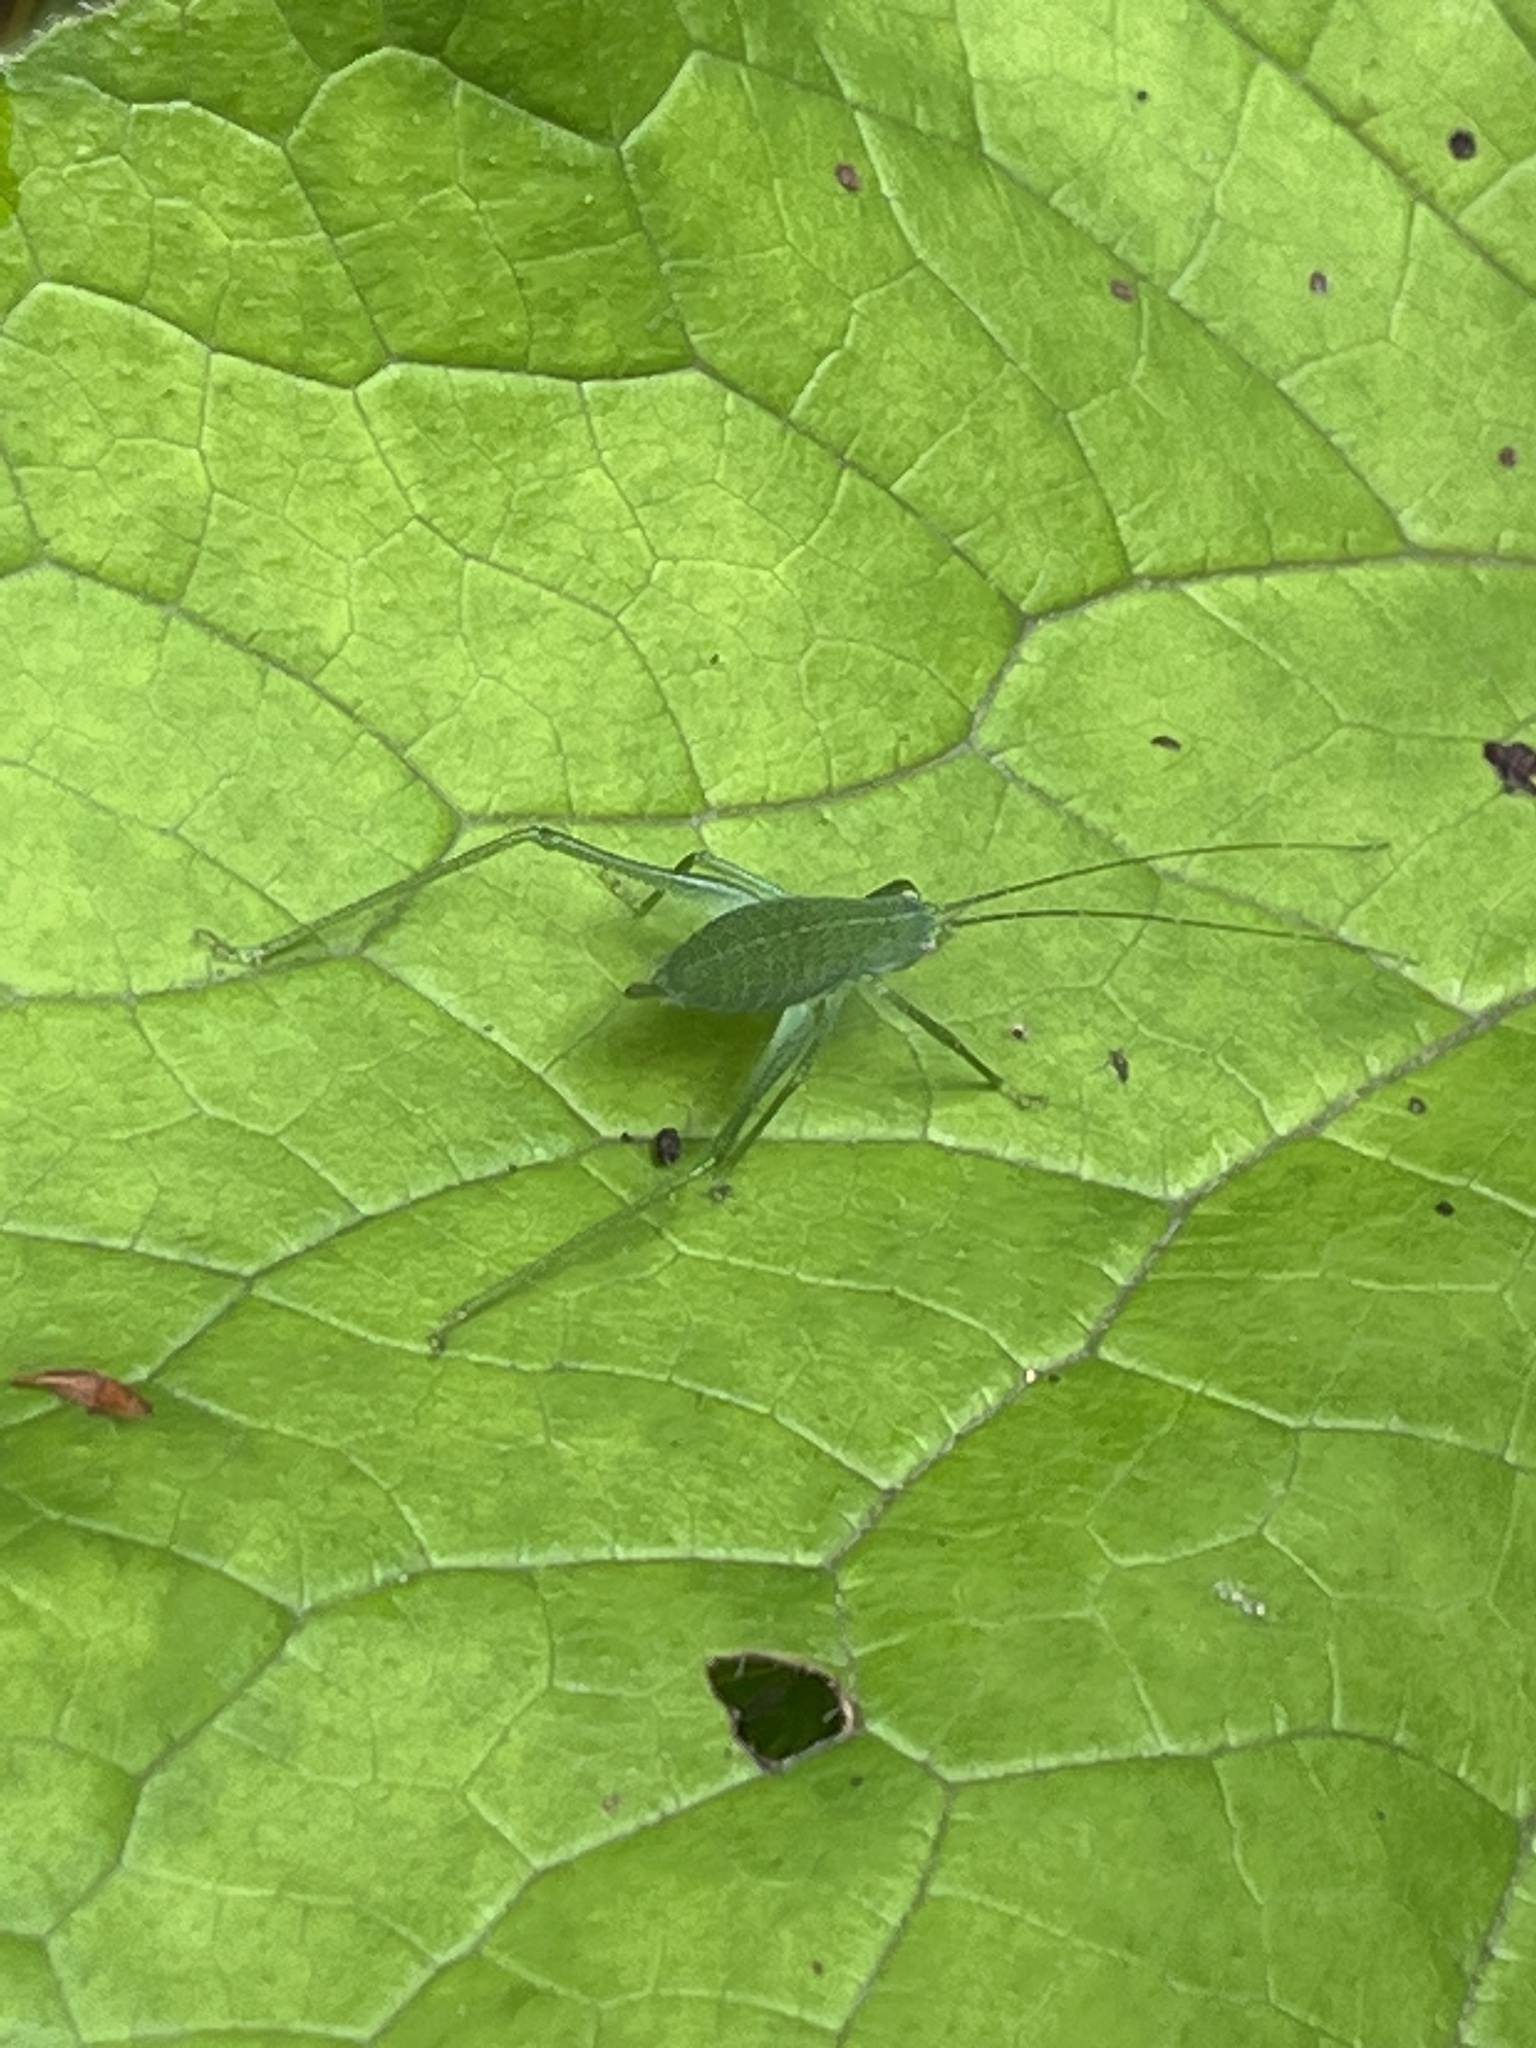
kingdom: Animalia
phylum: Arthropoda
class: Insecta
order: Orthoptera
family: Tettigoniidae
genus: Poecilimon
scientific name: Poecilimon schmidtii
